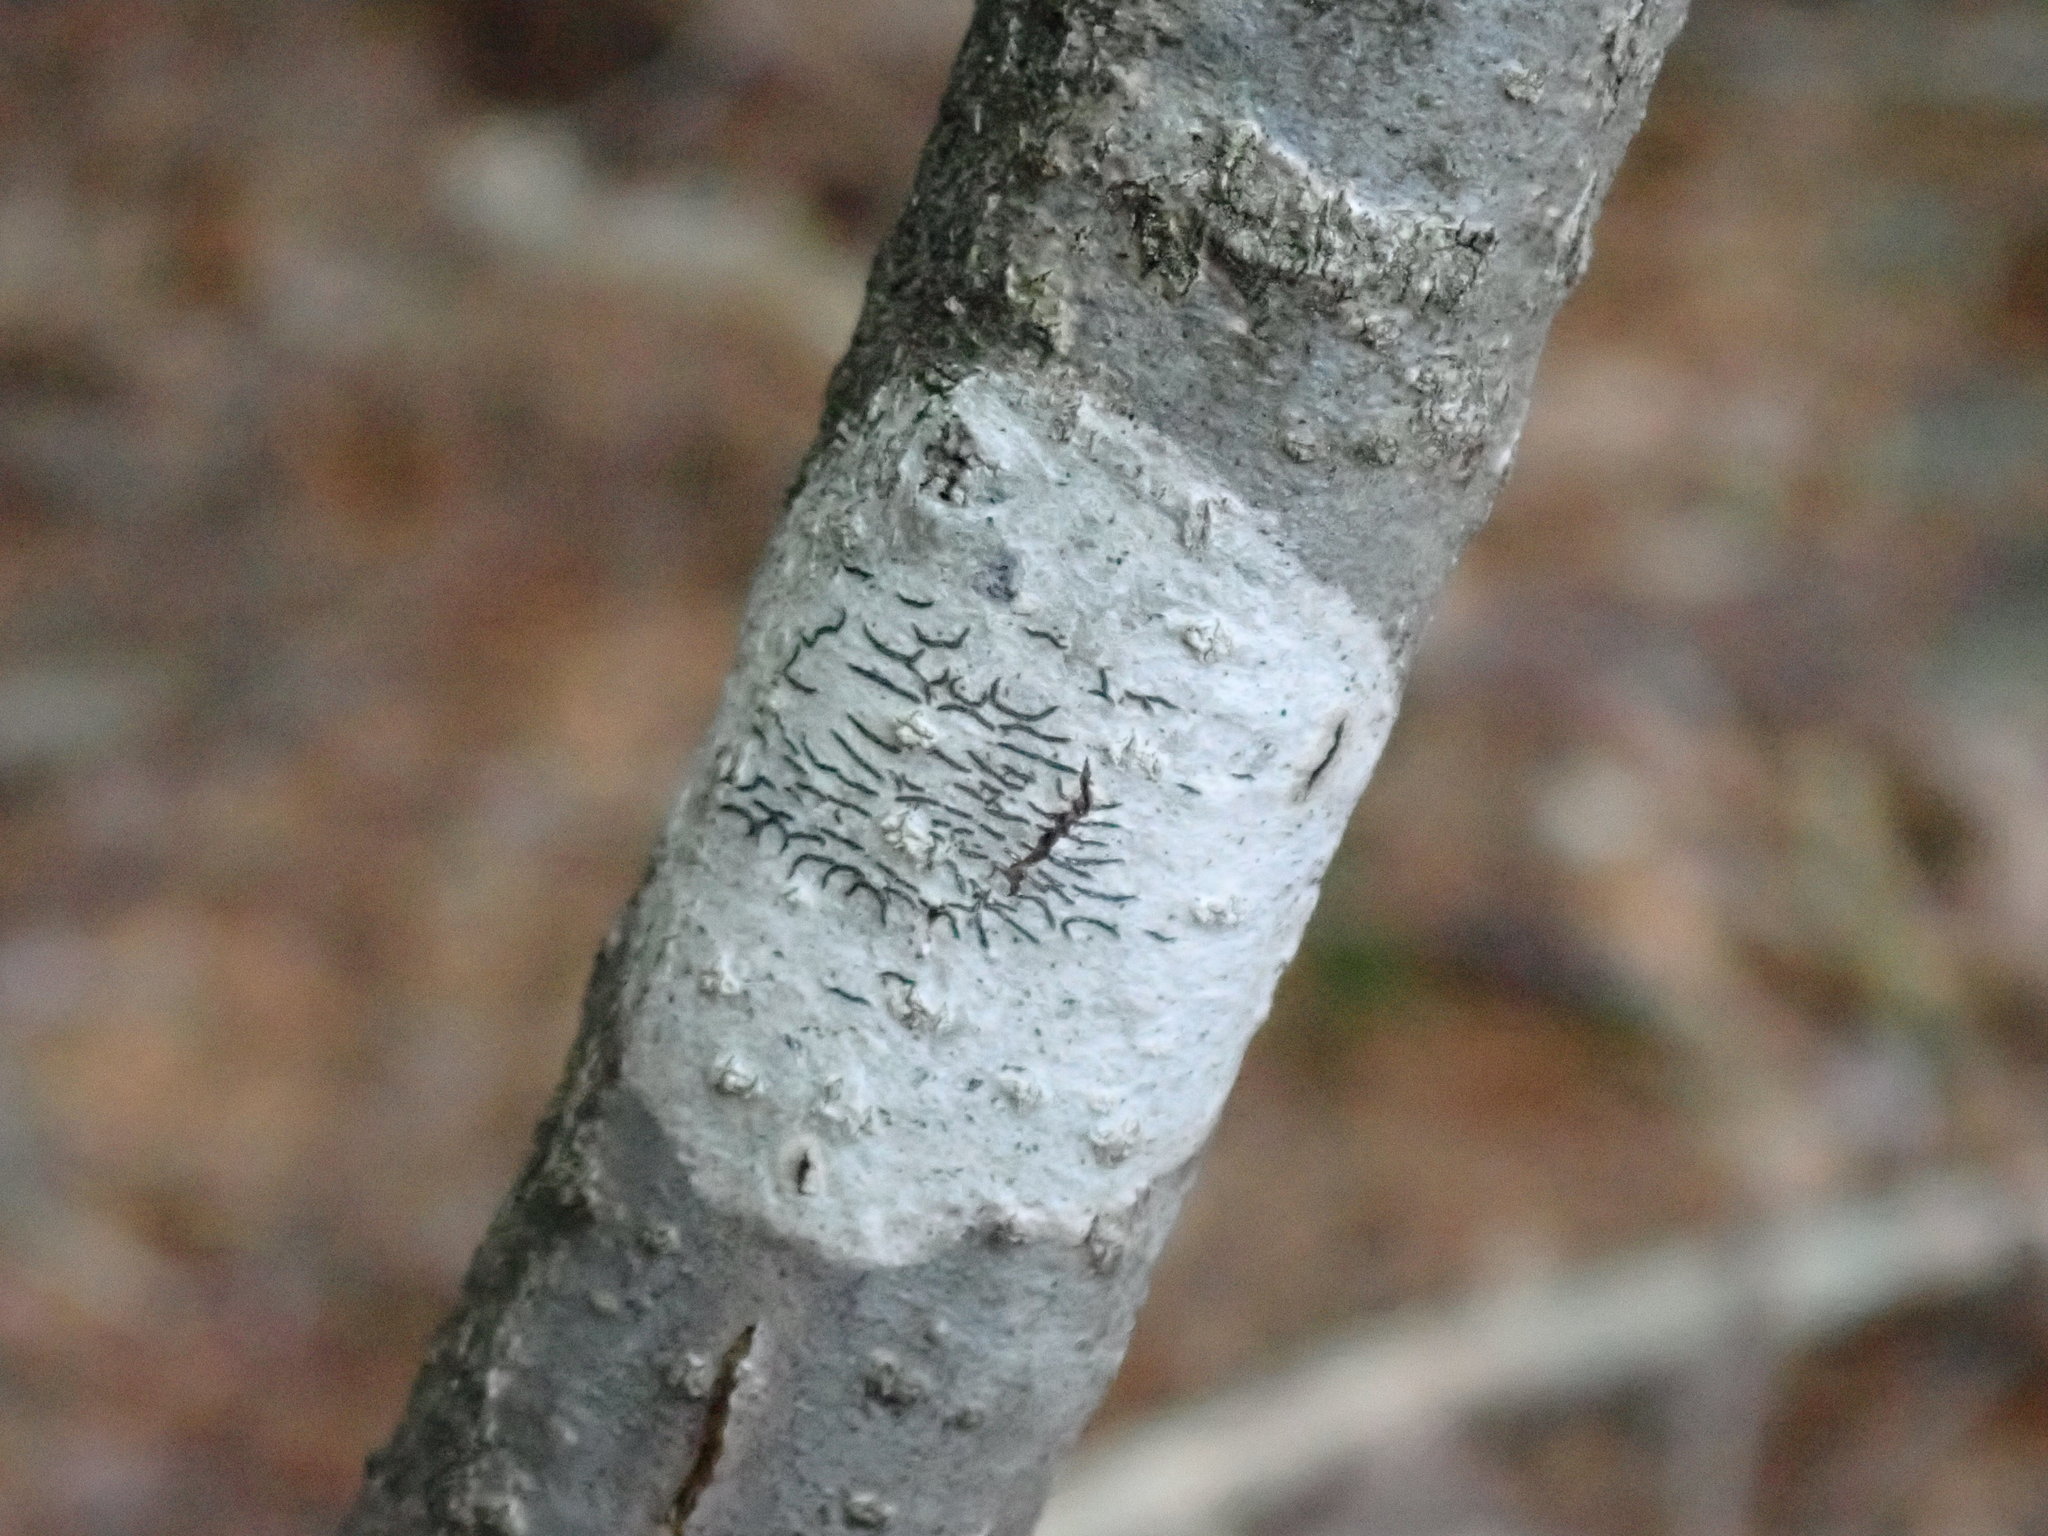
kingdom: Fungi
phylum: Ascomycota
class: Lecanoromycetes
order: Ostropales
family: Graphidaceae
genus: Graphis
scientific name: Graphis scripta
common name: Script lichen
